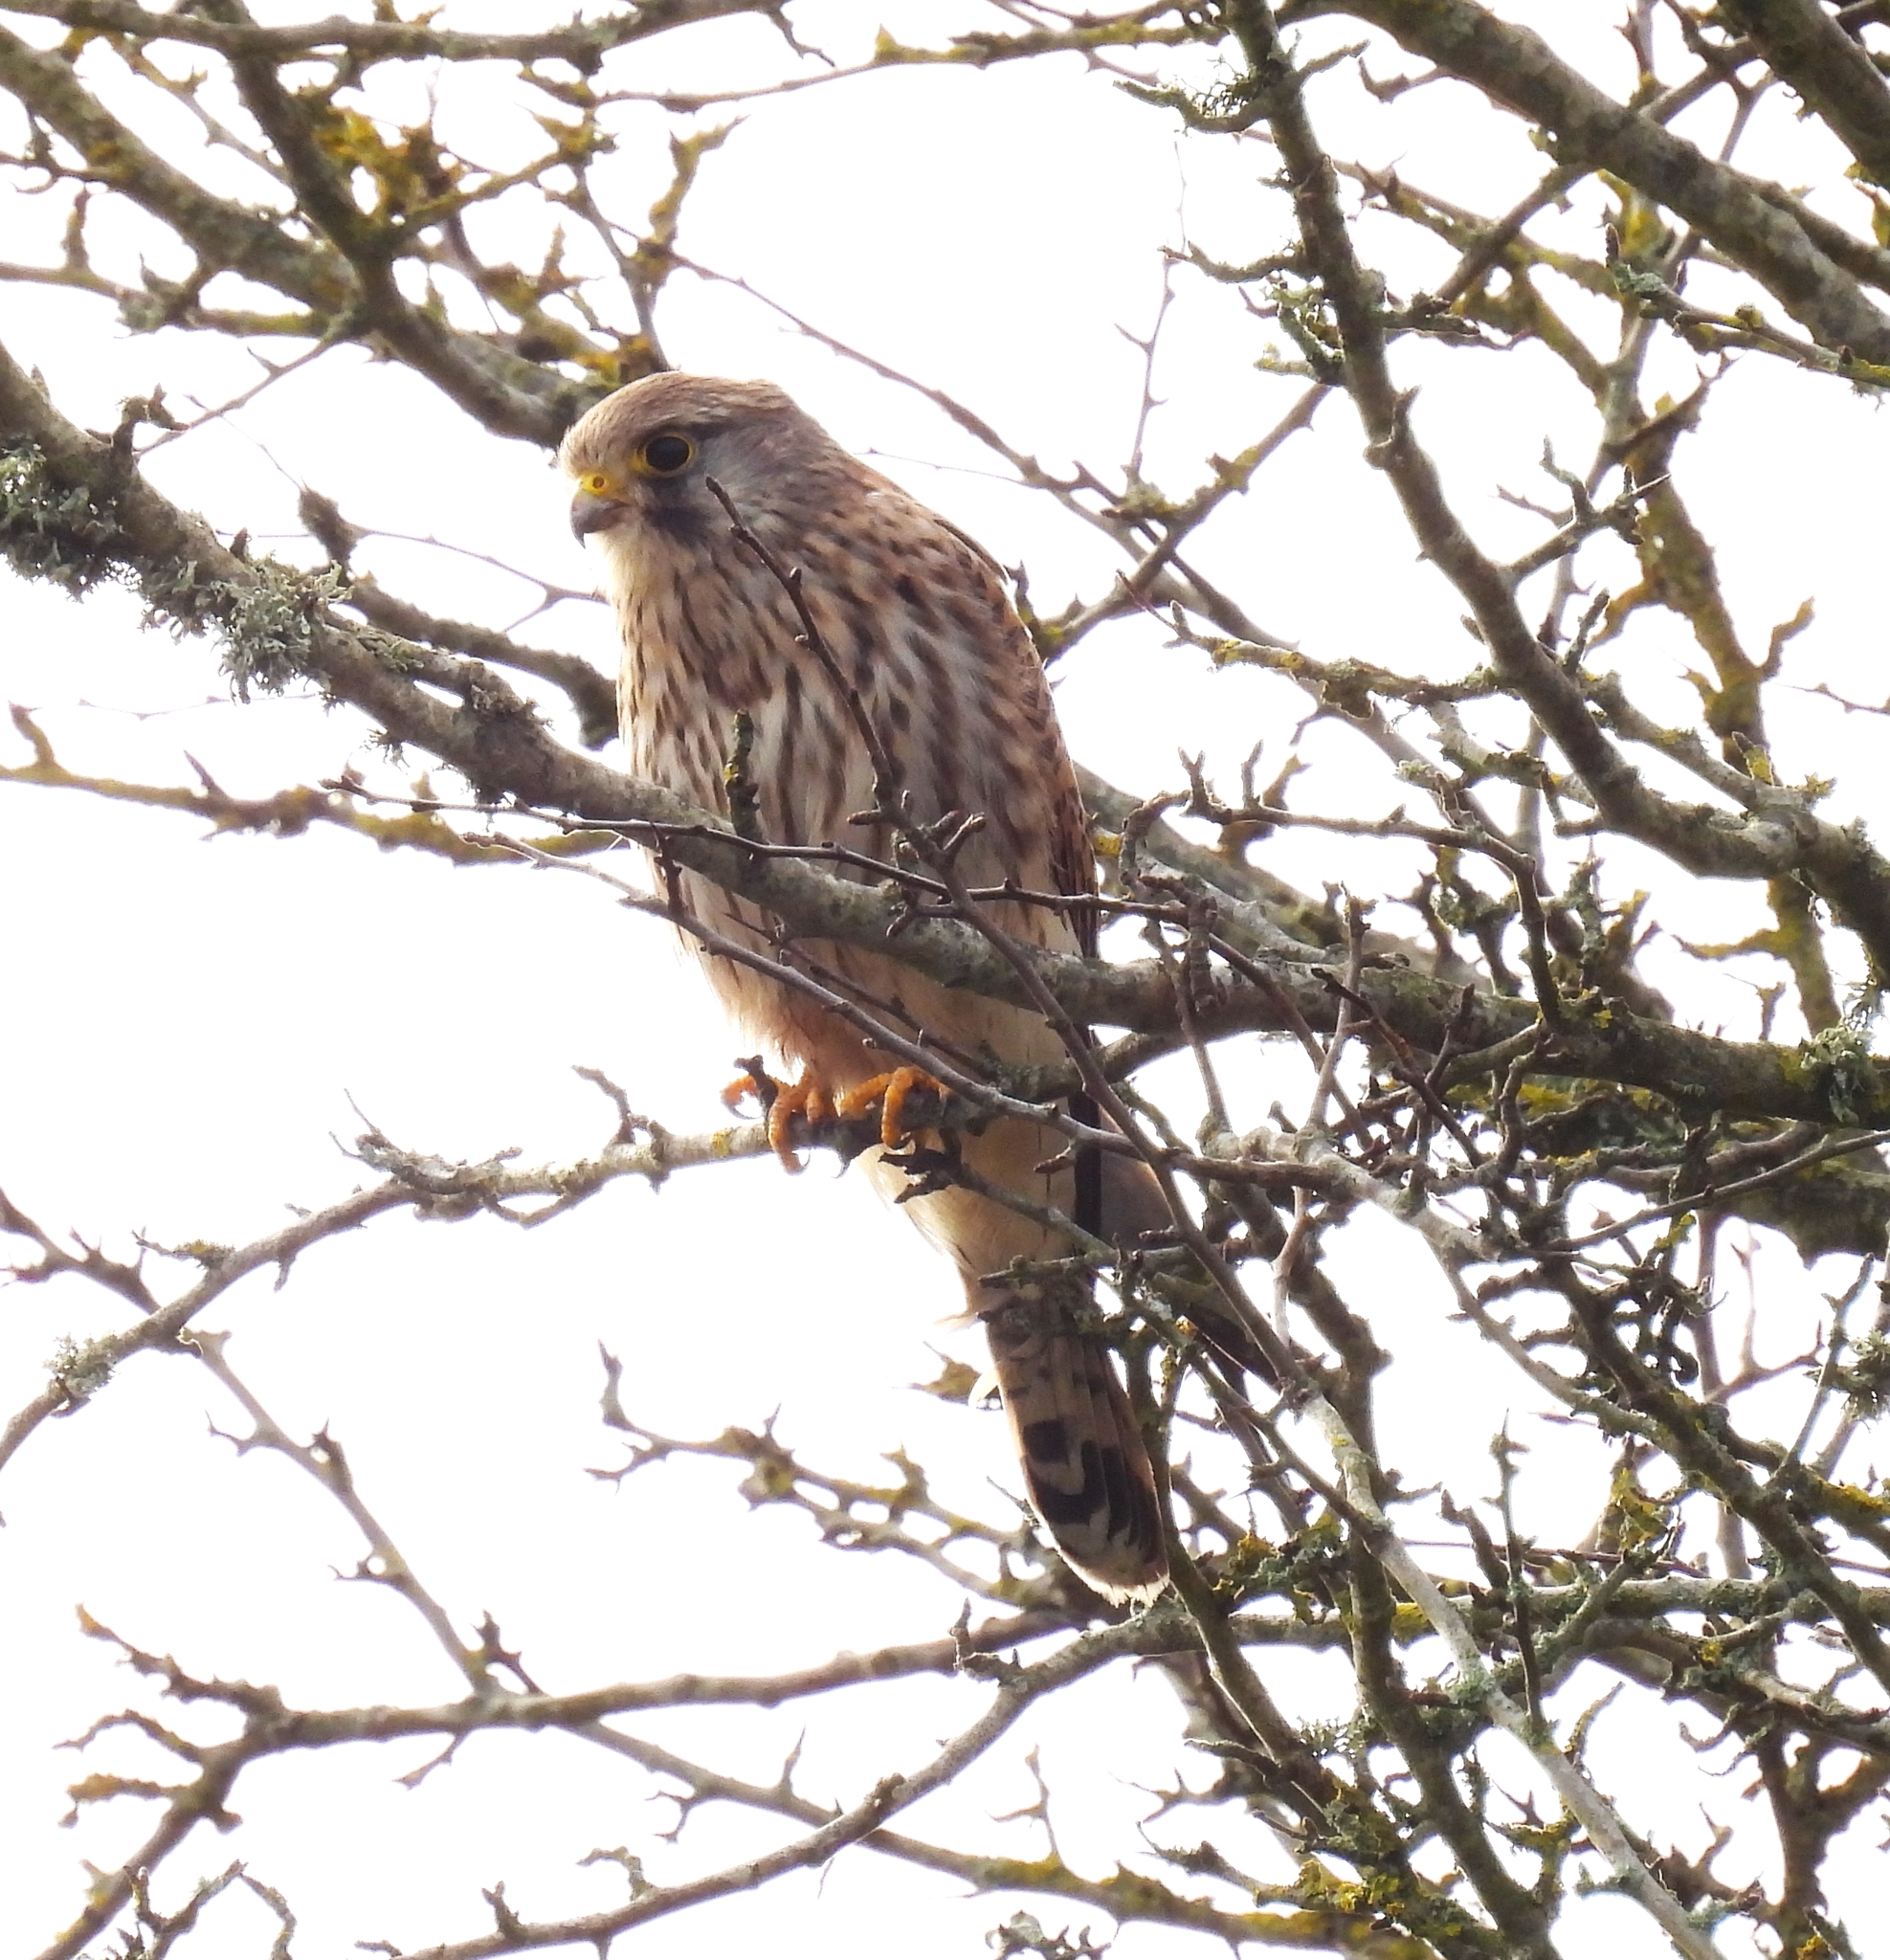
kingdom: Animalia
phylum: Chordata
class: Aves
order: Falconiformes
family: Falconidae
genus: Falco
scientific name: Falco tinnunculus
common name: Common kestrel
